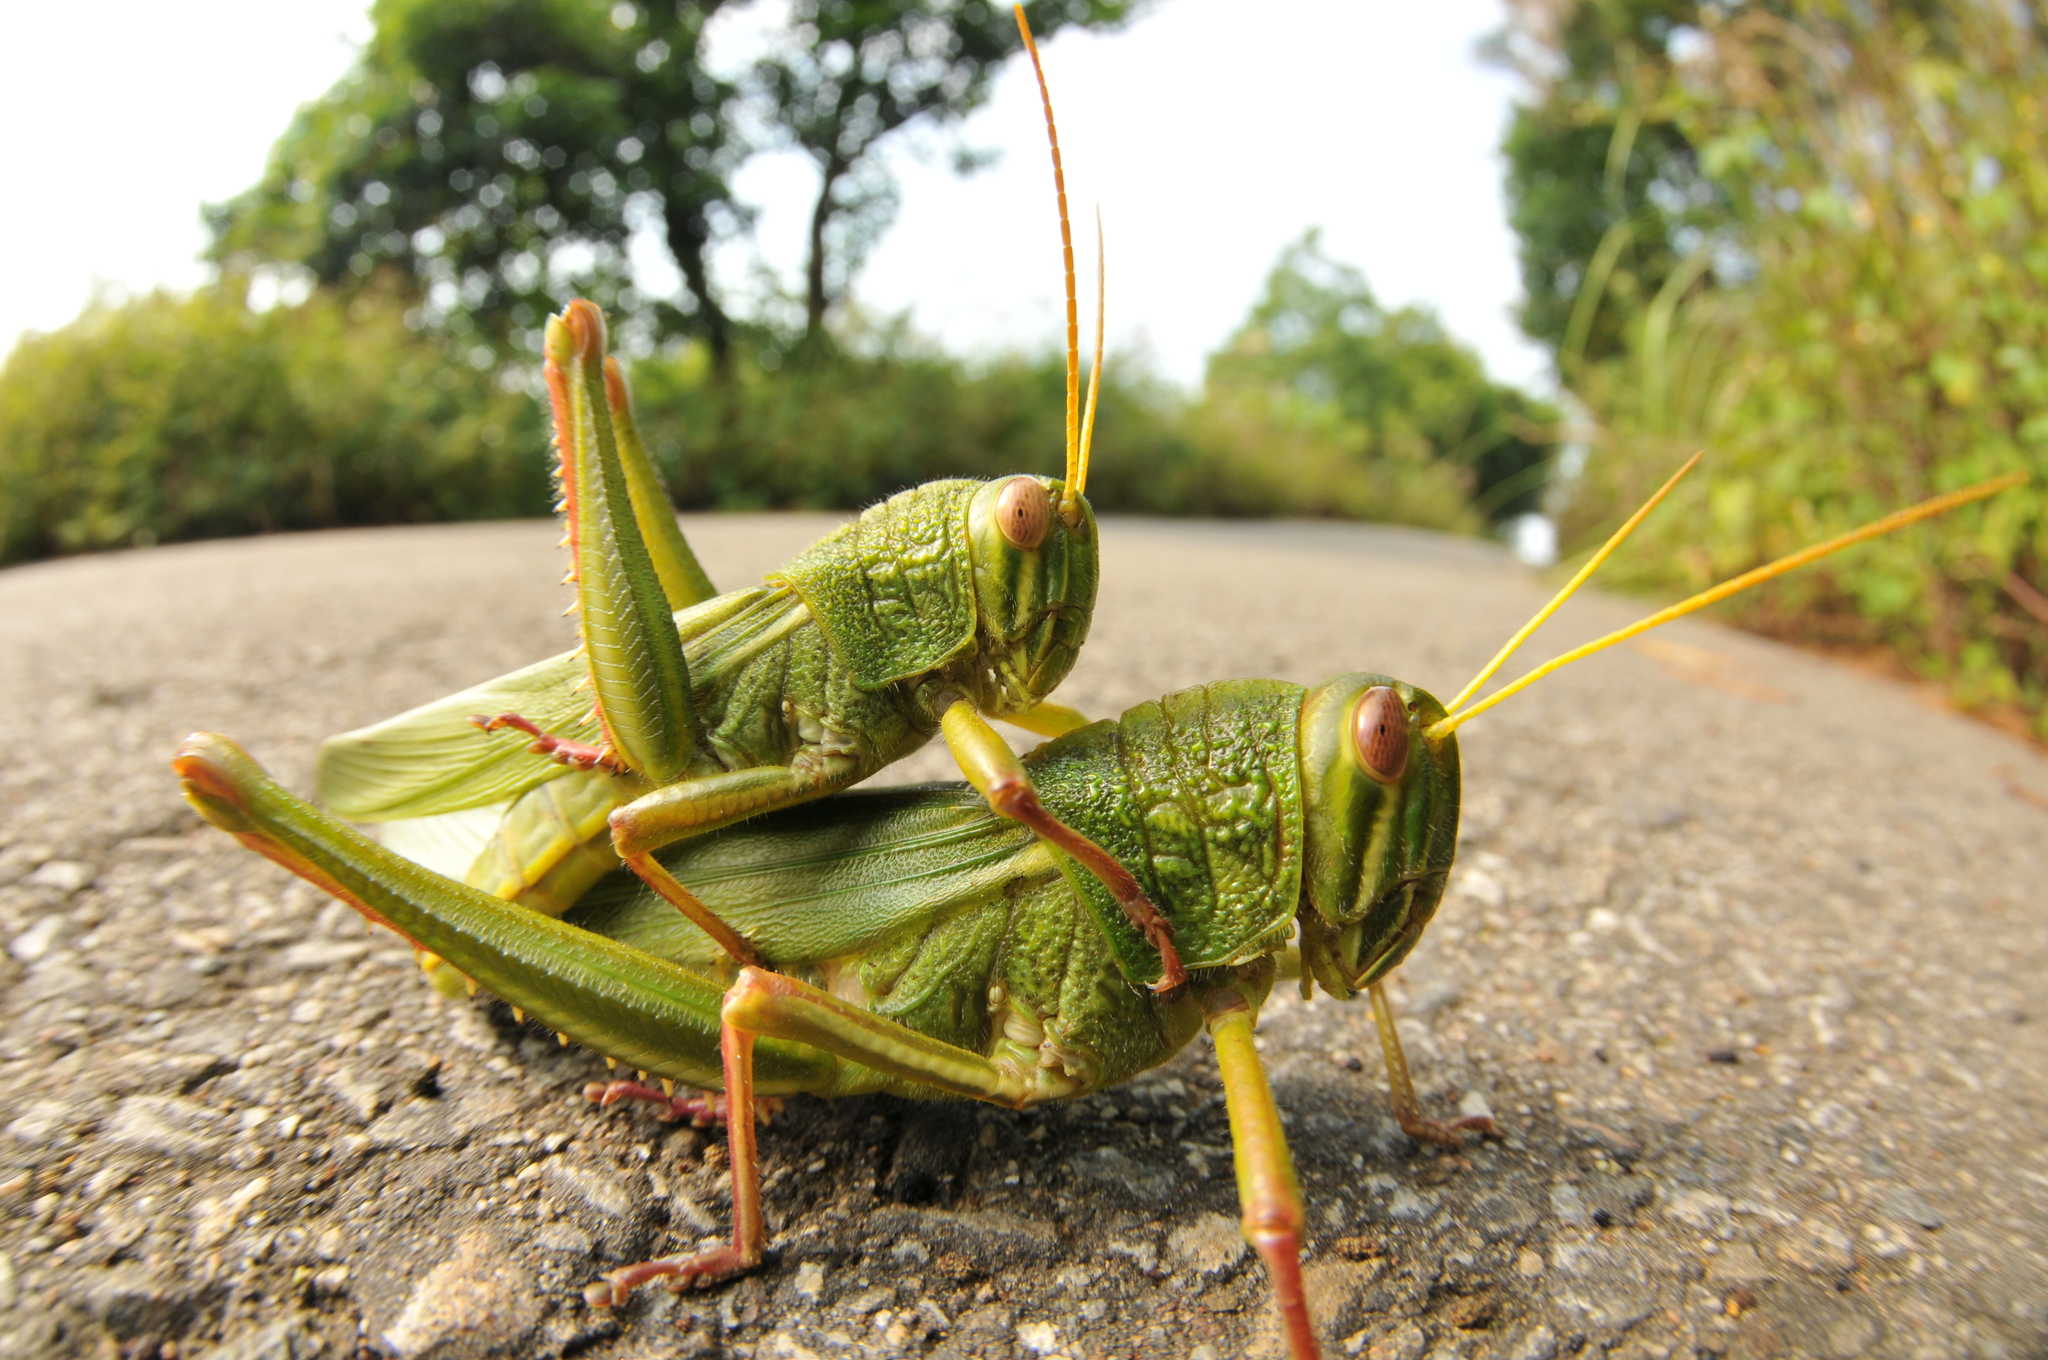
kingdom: Animalia
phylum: Arthropoda
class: Insecta
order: Orthoptera
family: Acrididae
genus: Chondracris
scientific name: Chondracris rosea
